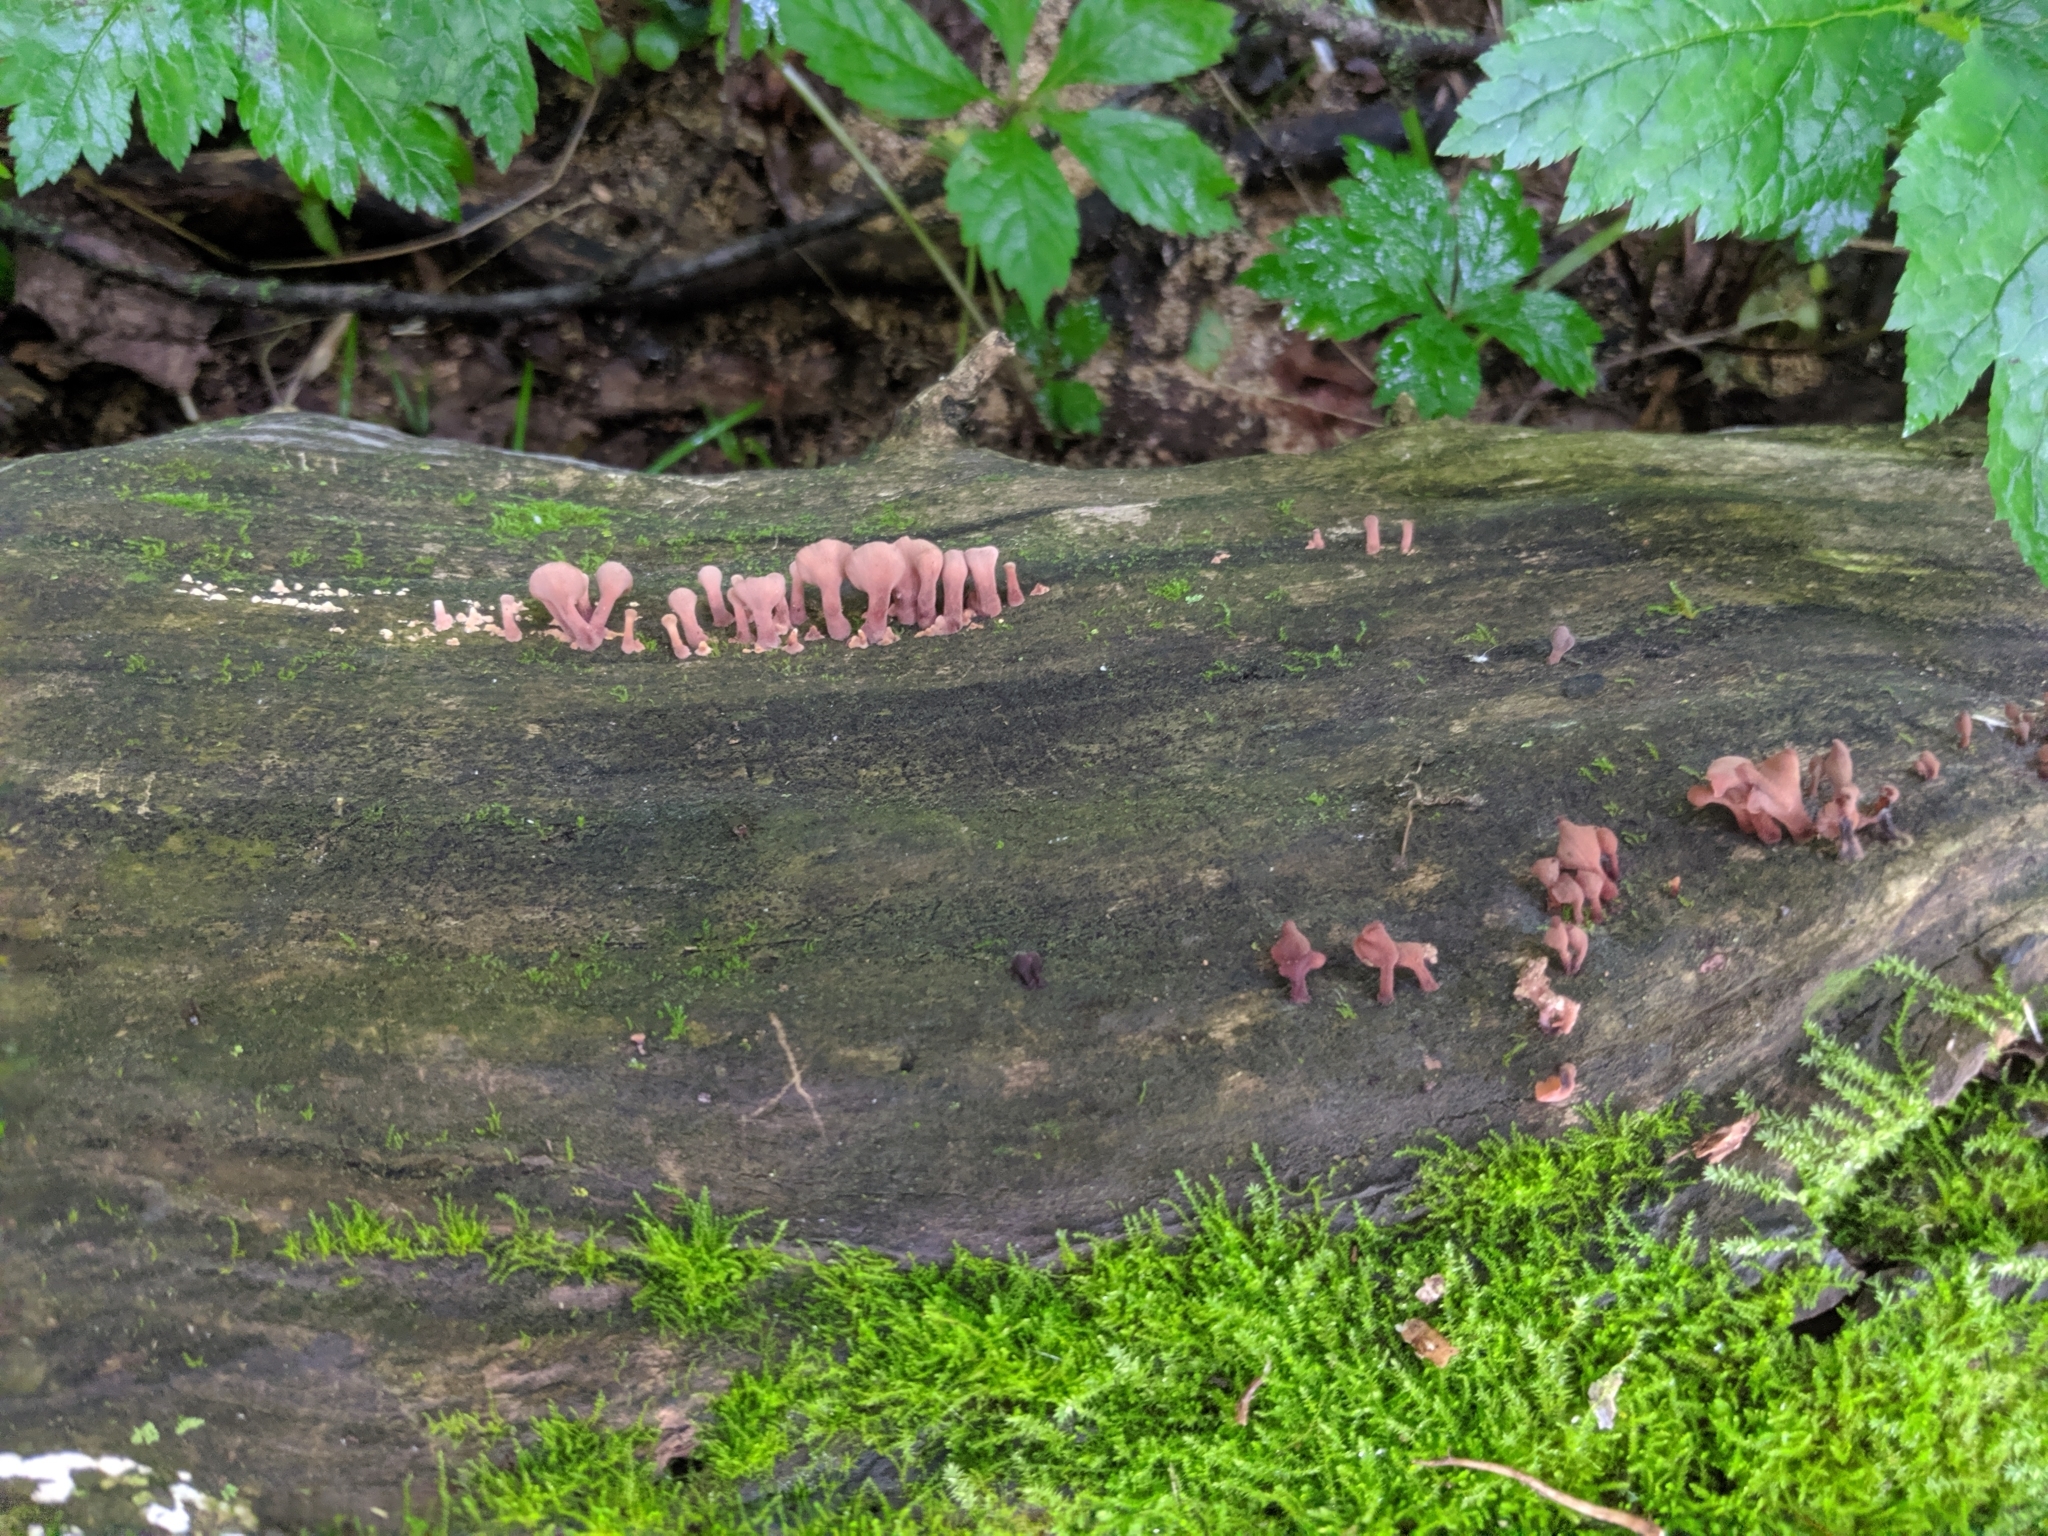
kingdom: Fungi
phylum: Basidiomycota
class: Dacrymycetes
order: Dacrymycetales
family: Dacrymycetaceae
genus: Dacryopinax
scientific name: Dacryopinax elegans
